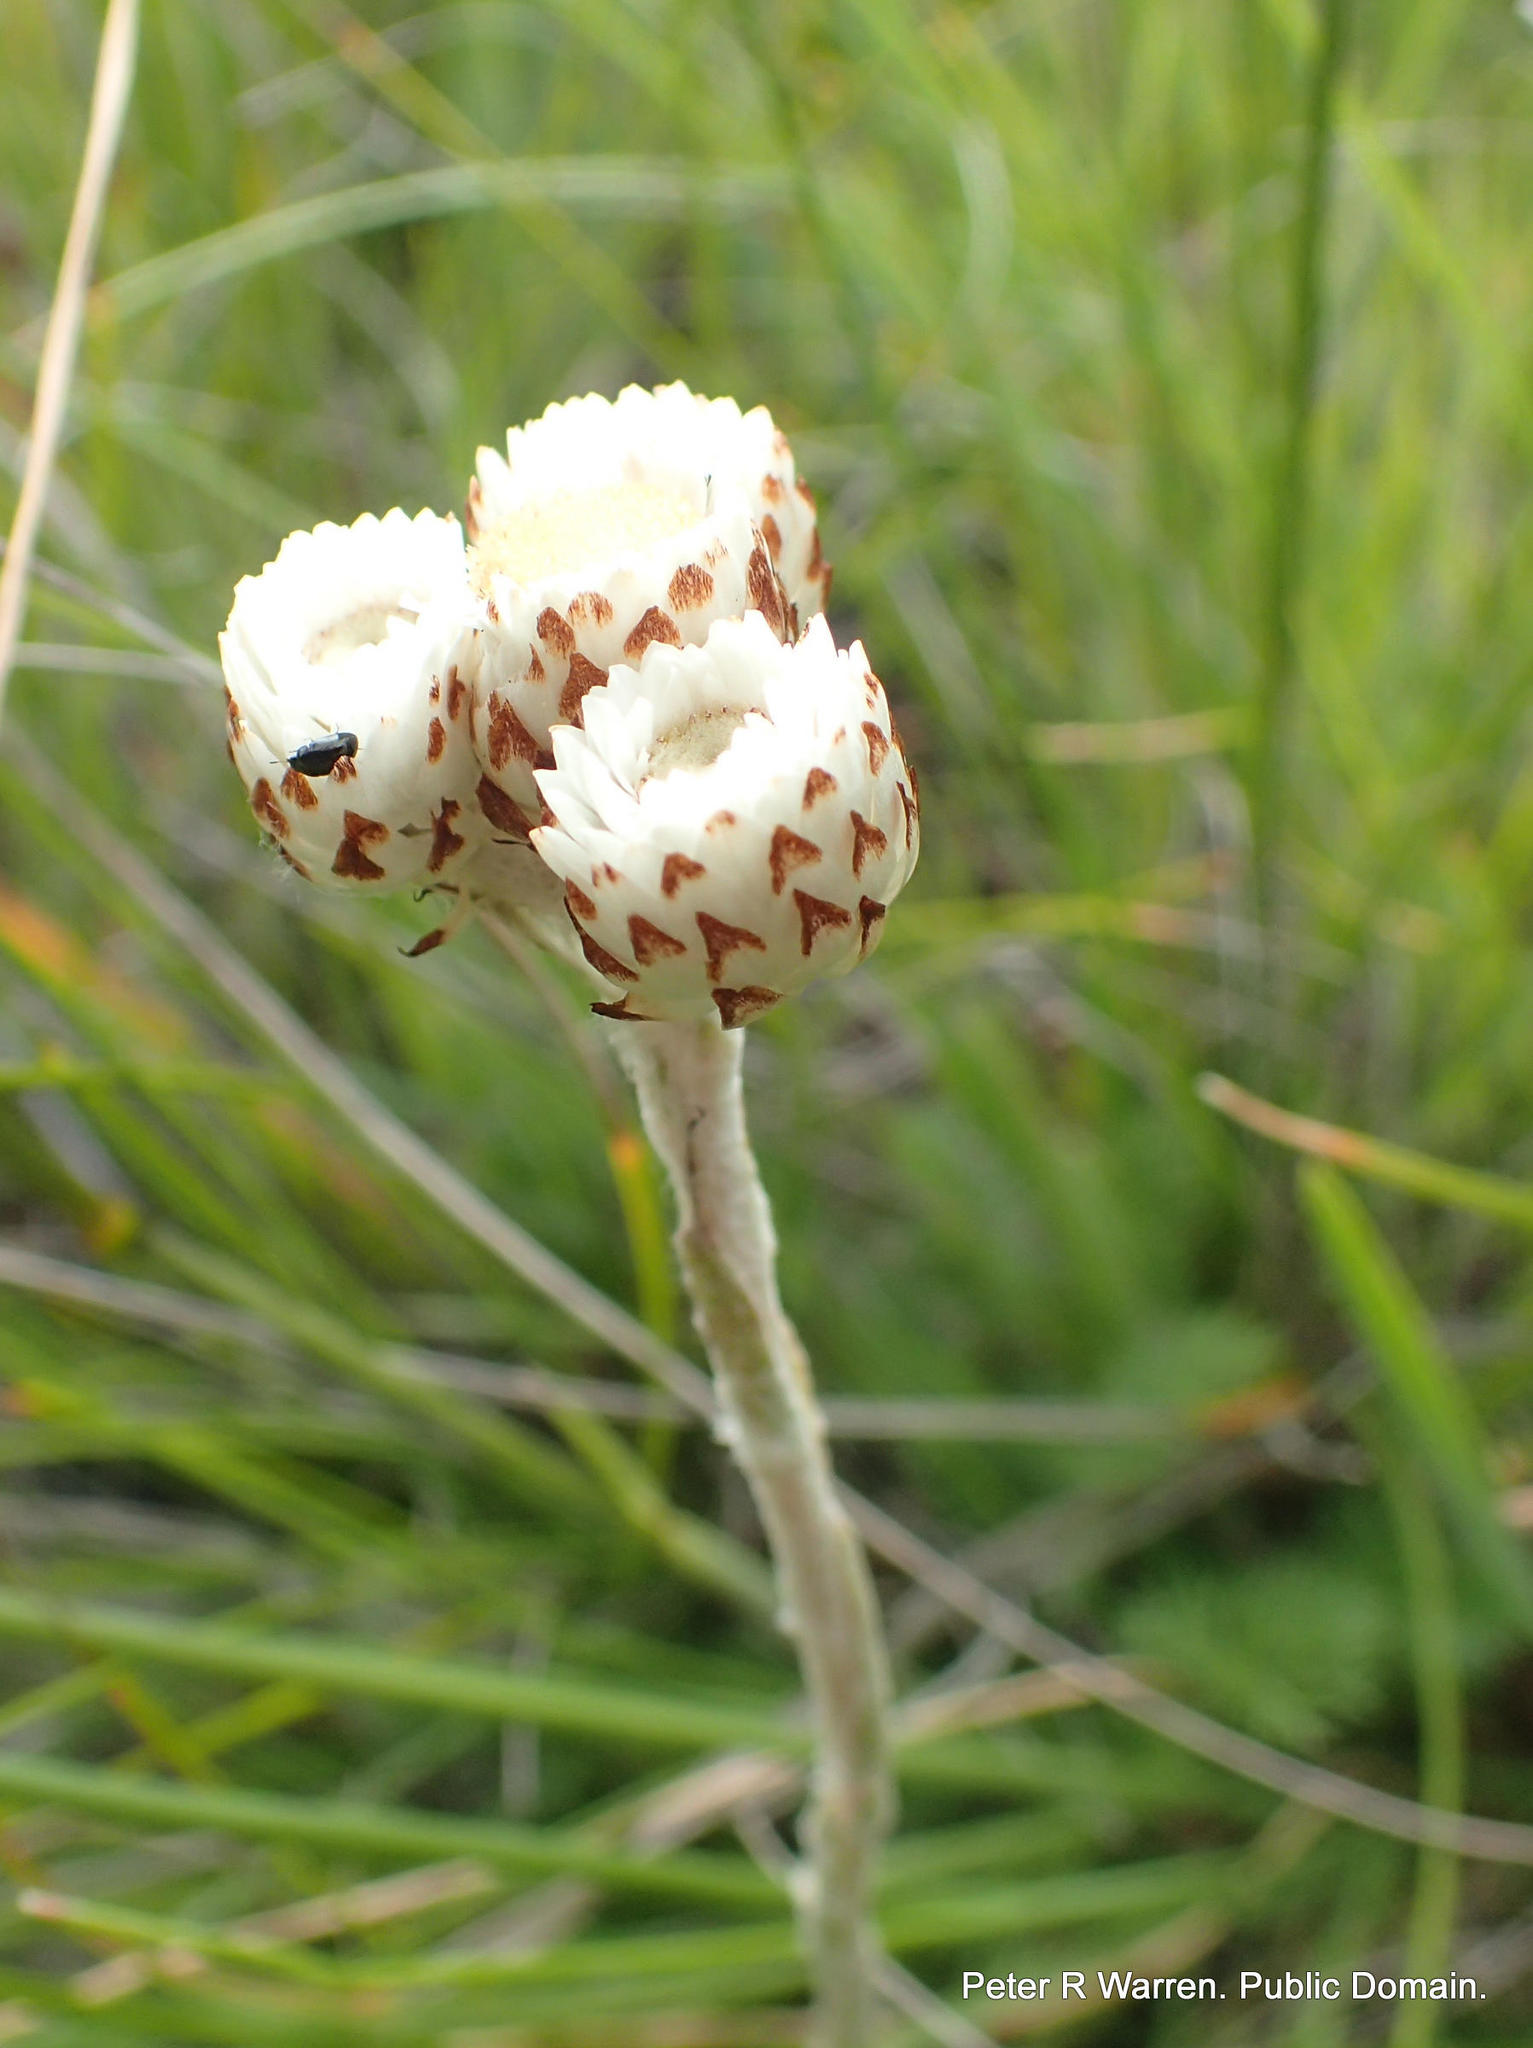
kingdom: Plantae
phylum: Tracheophyta
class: Magnoliopsida
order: Asterales
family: Asteraceae
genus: Helichrysum
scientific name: Helichrysum albobrunneum
